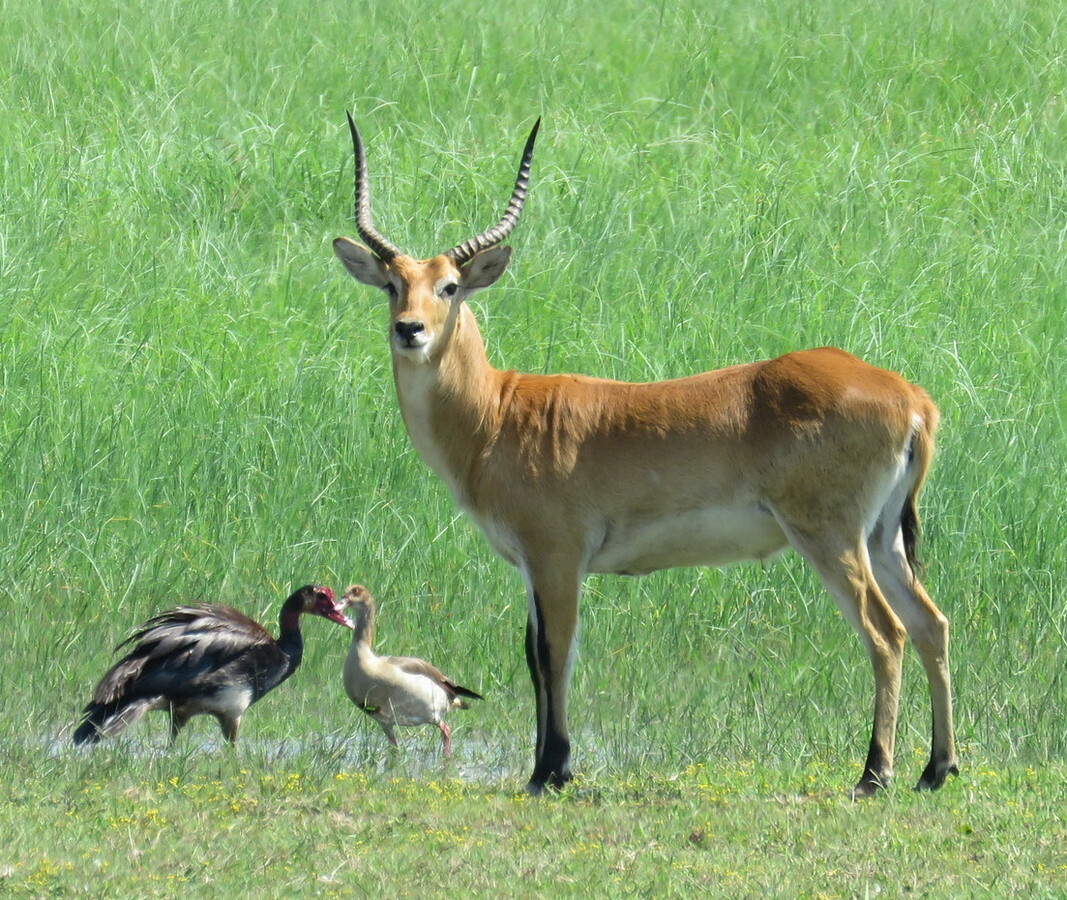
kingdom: Animalia
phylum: Chordata
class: Mammalia
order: Artiodactyla
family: Bovidae
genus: Kobus
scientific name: Kobus leche
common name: Lechwe
